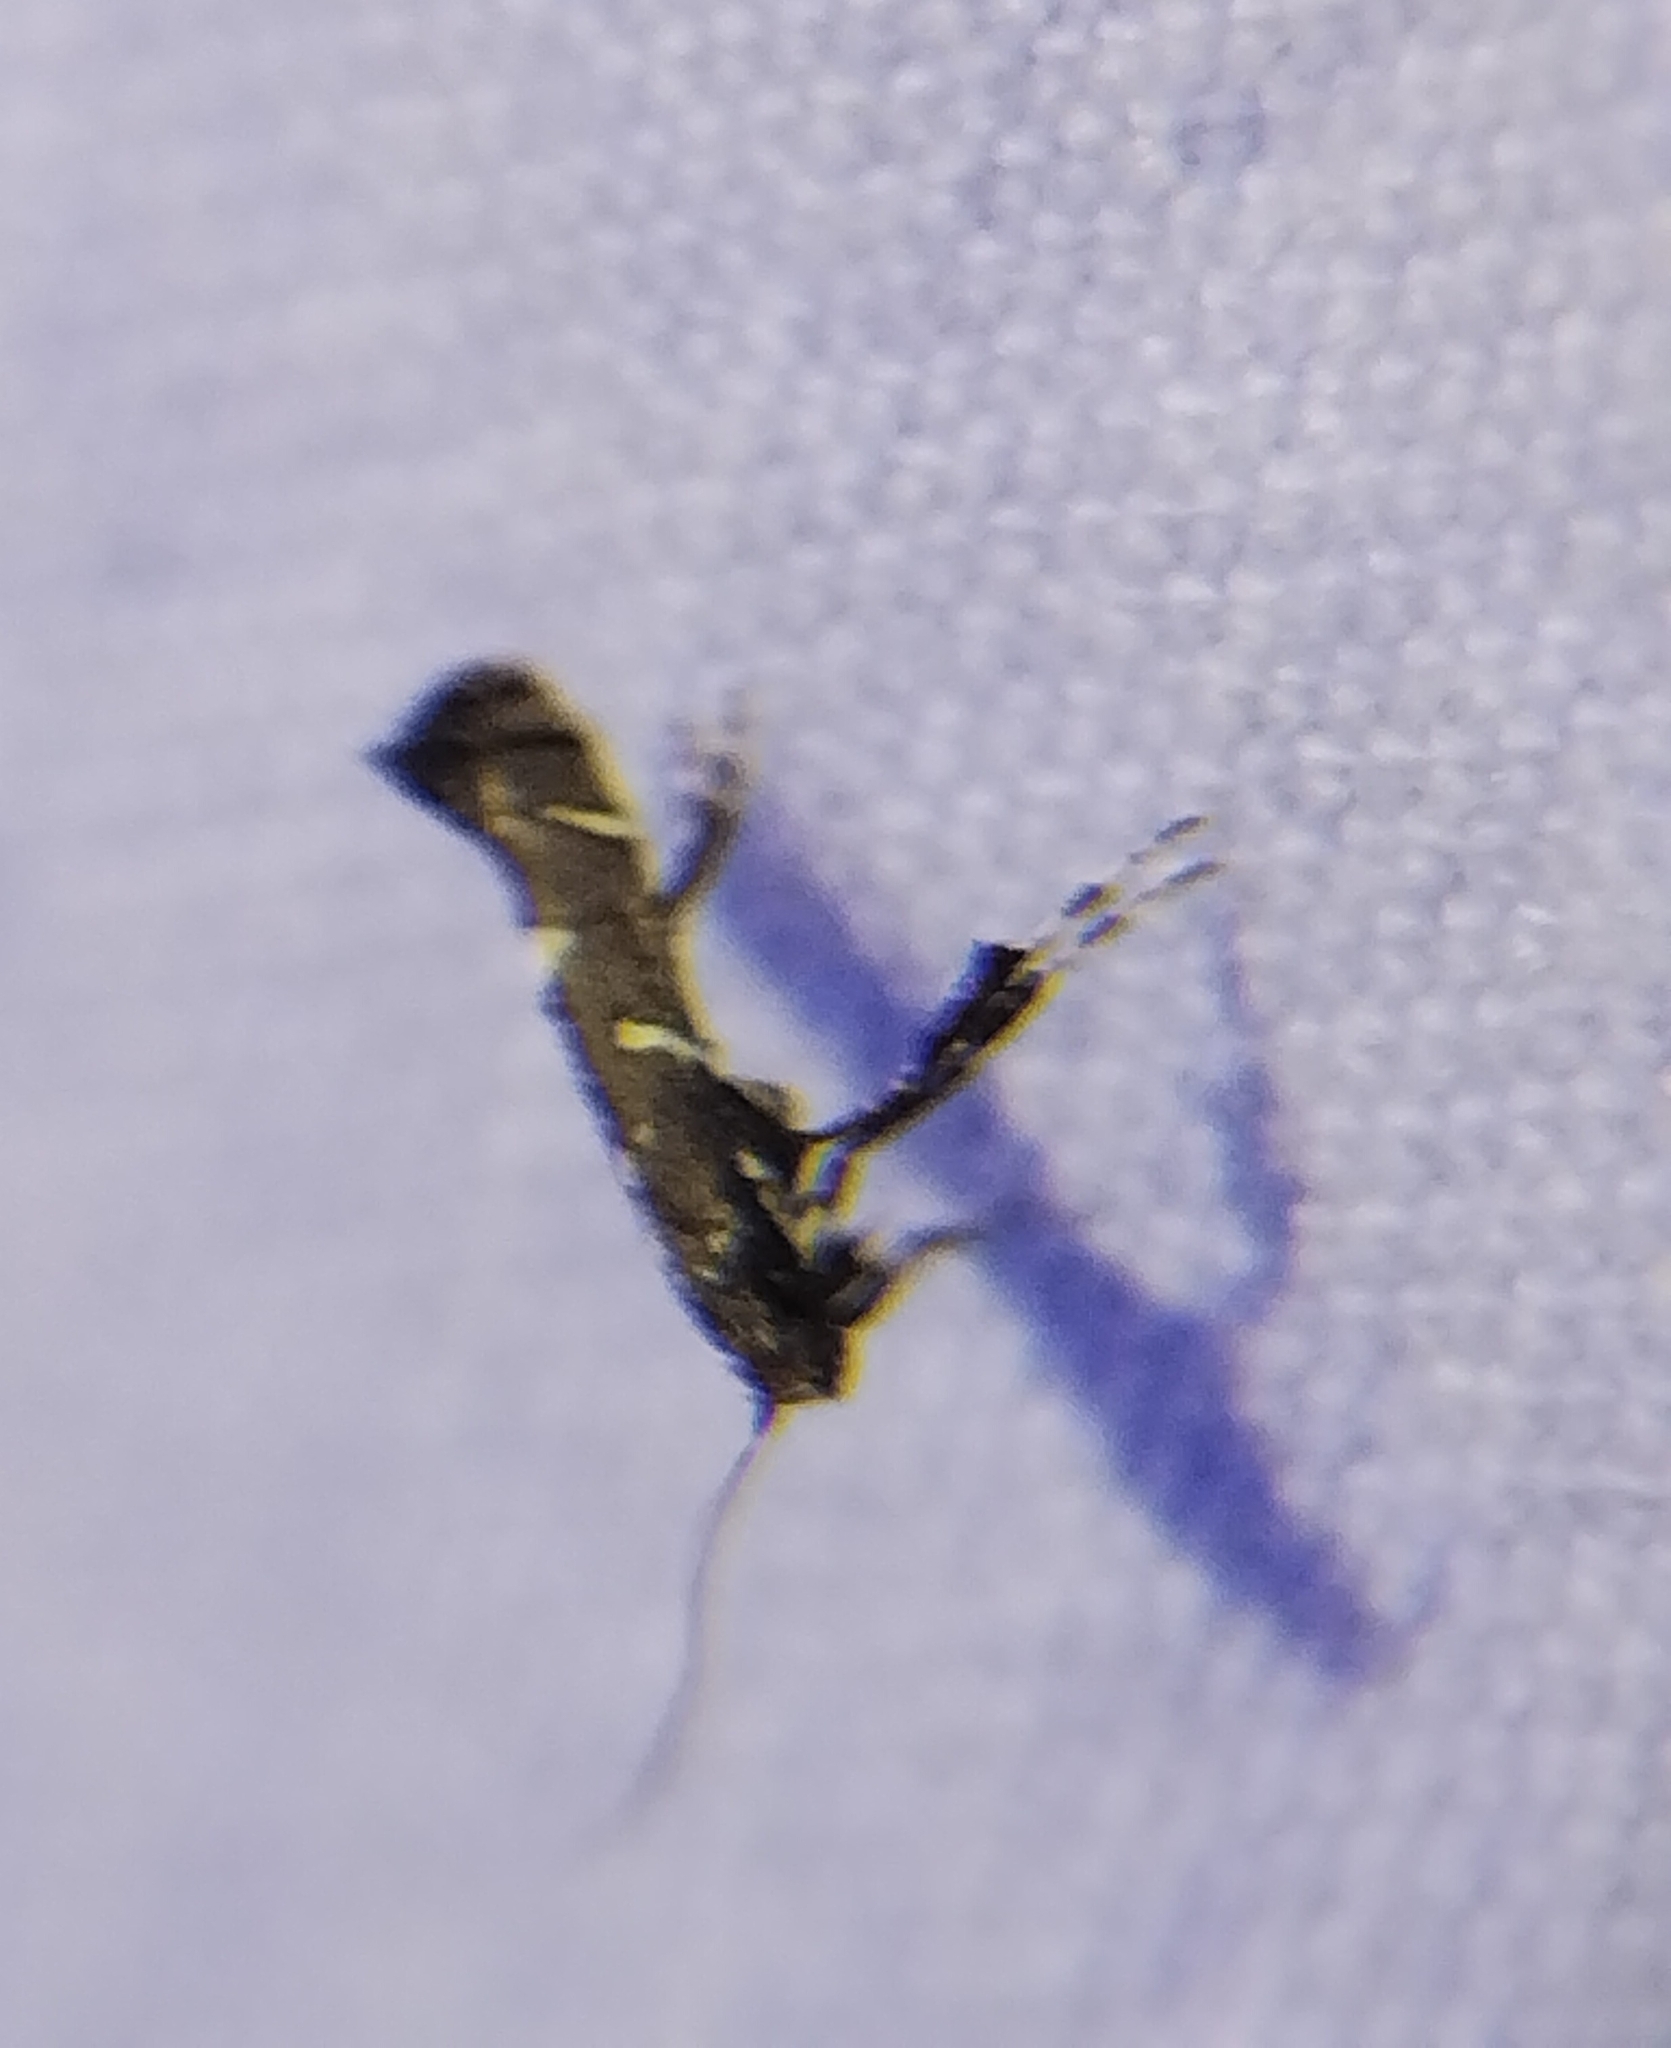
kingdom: Animalia
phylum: Arthropoda
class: Insecta
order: Lepidoptera
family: Gracillariidae
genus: Caloptilia
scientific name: Caloptilia triadicae
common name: Tallow leaf roller
